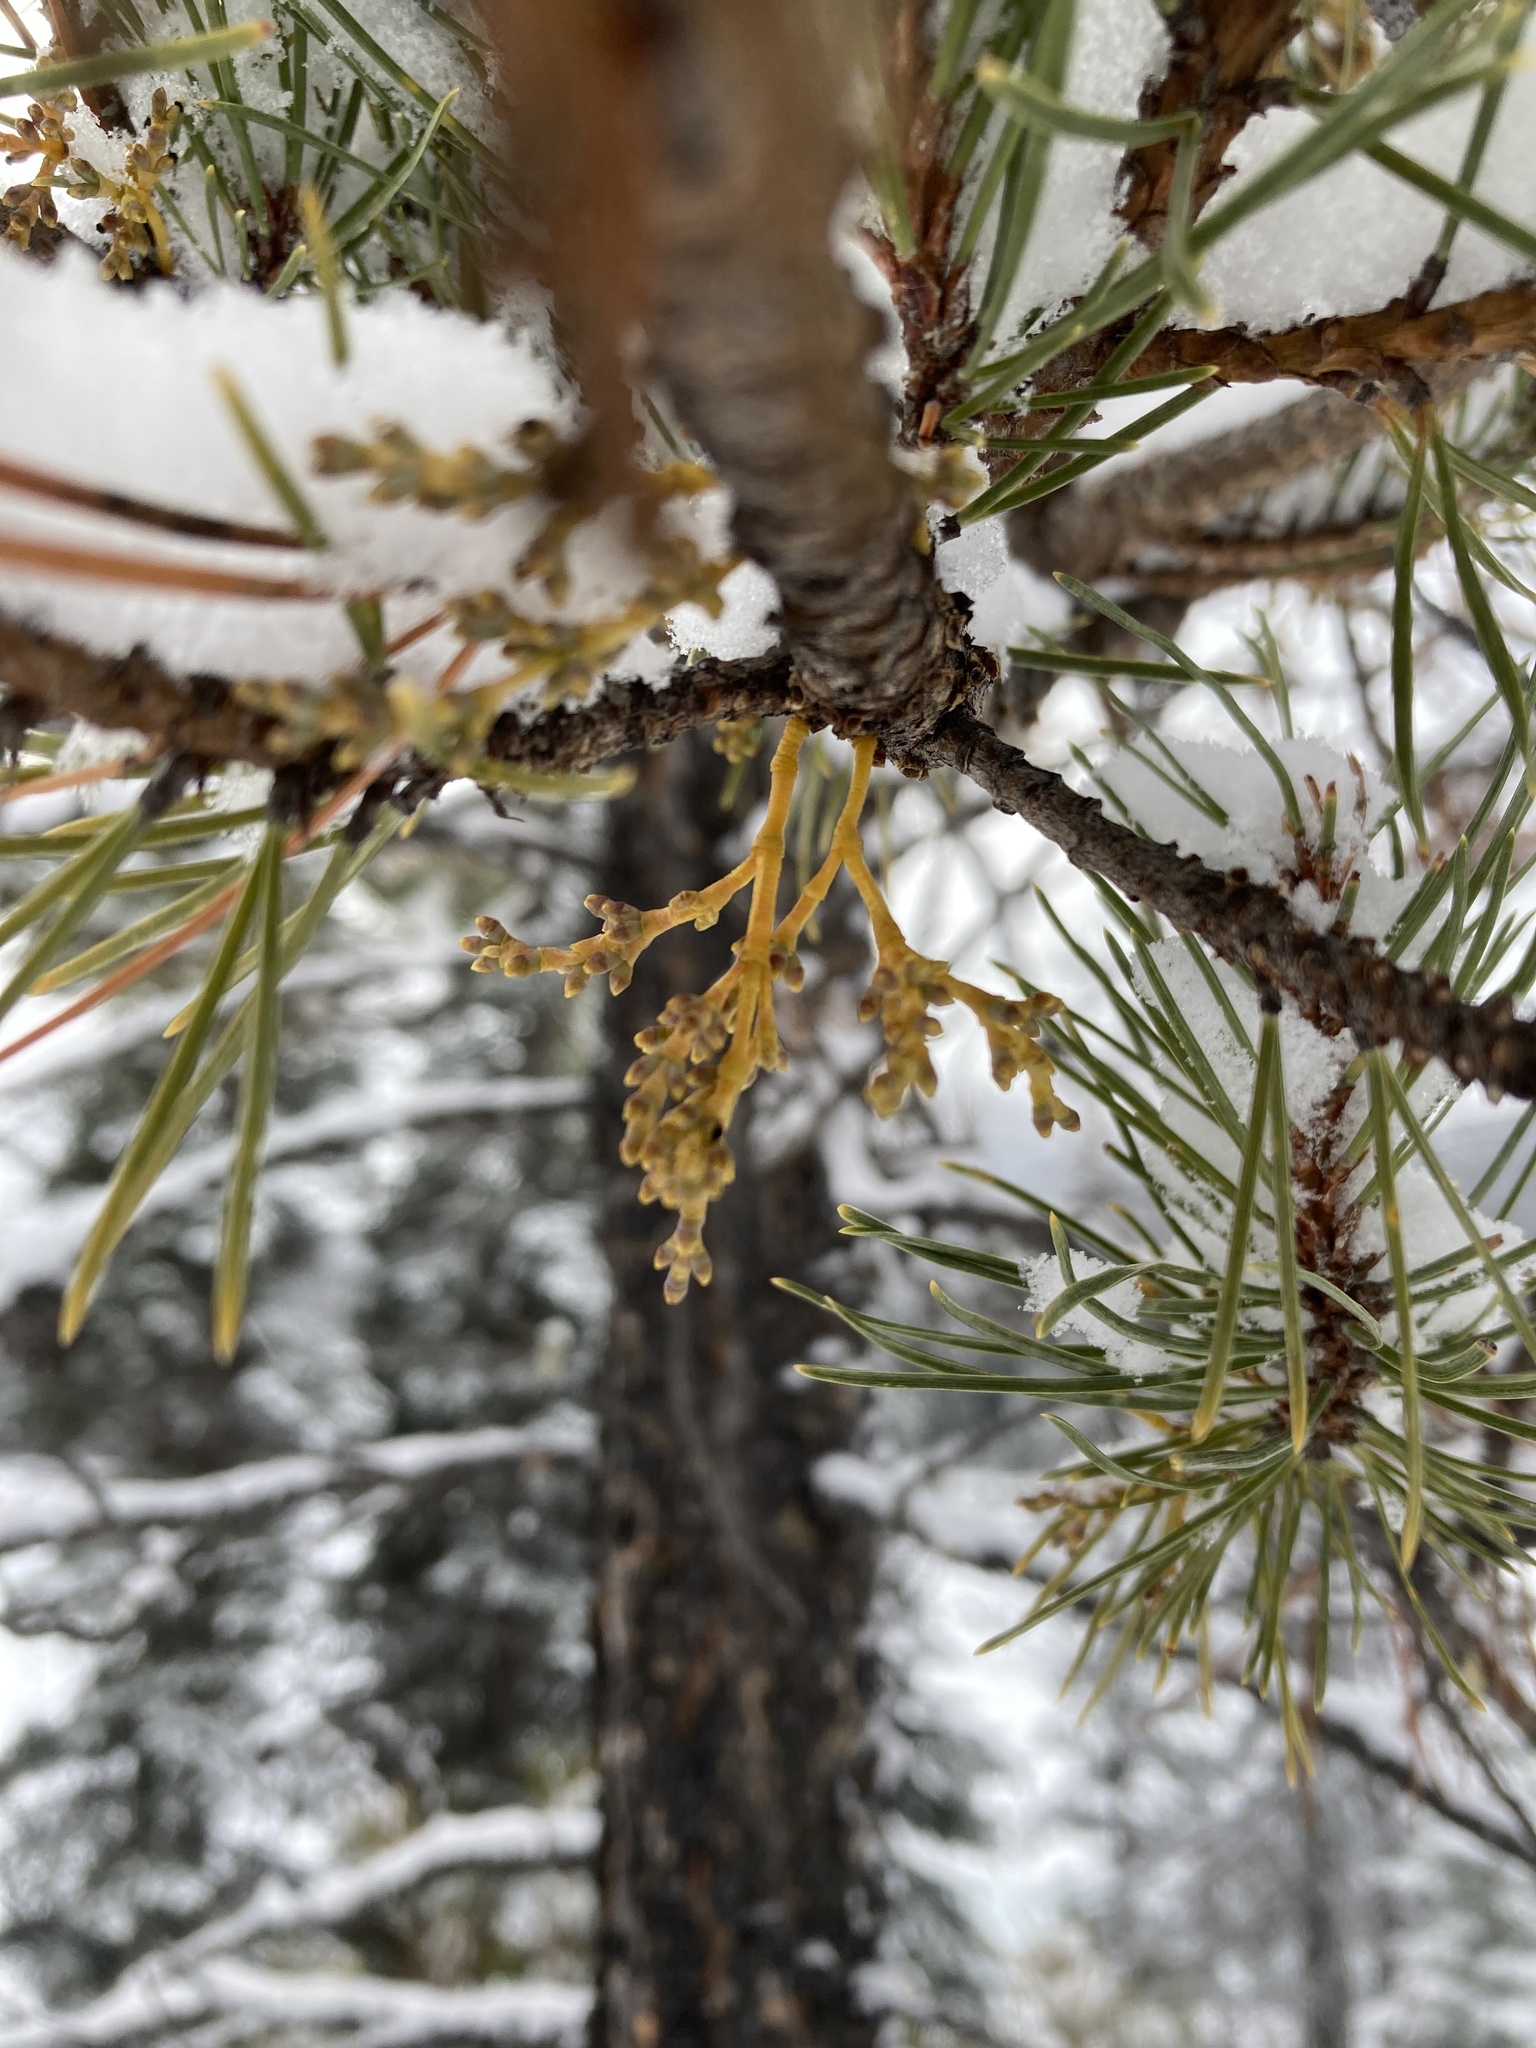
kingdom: Plantae
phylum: Tracheophyta
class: Magnoliopsida
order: Santalales
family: Viscaceae
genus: Arceuthobium
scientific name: Arceuthobium americanum
